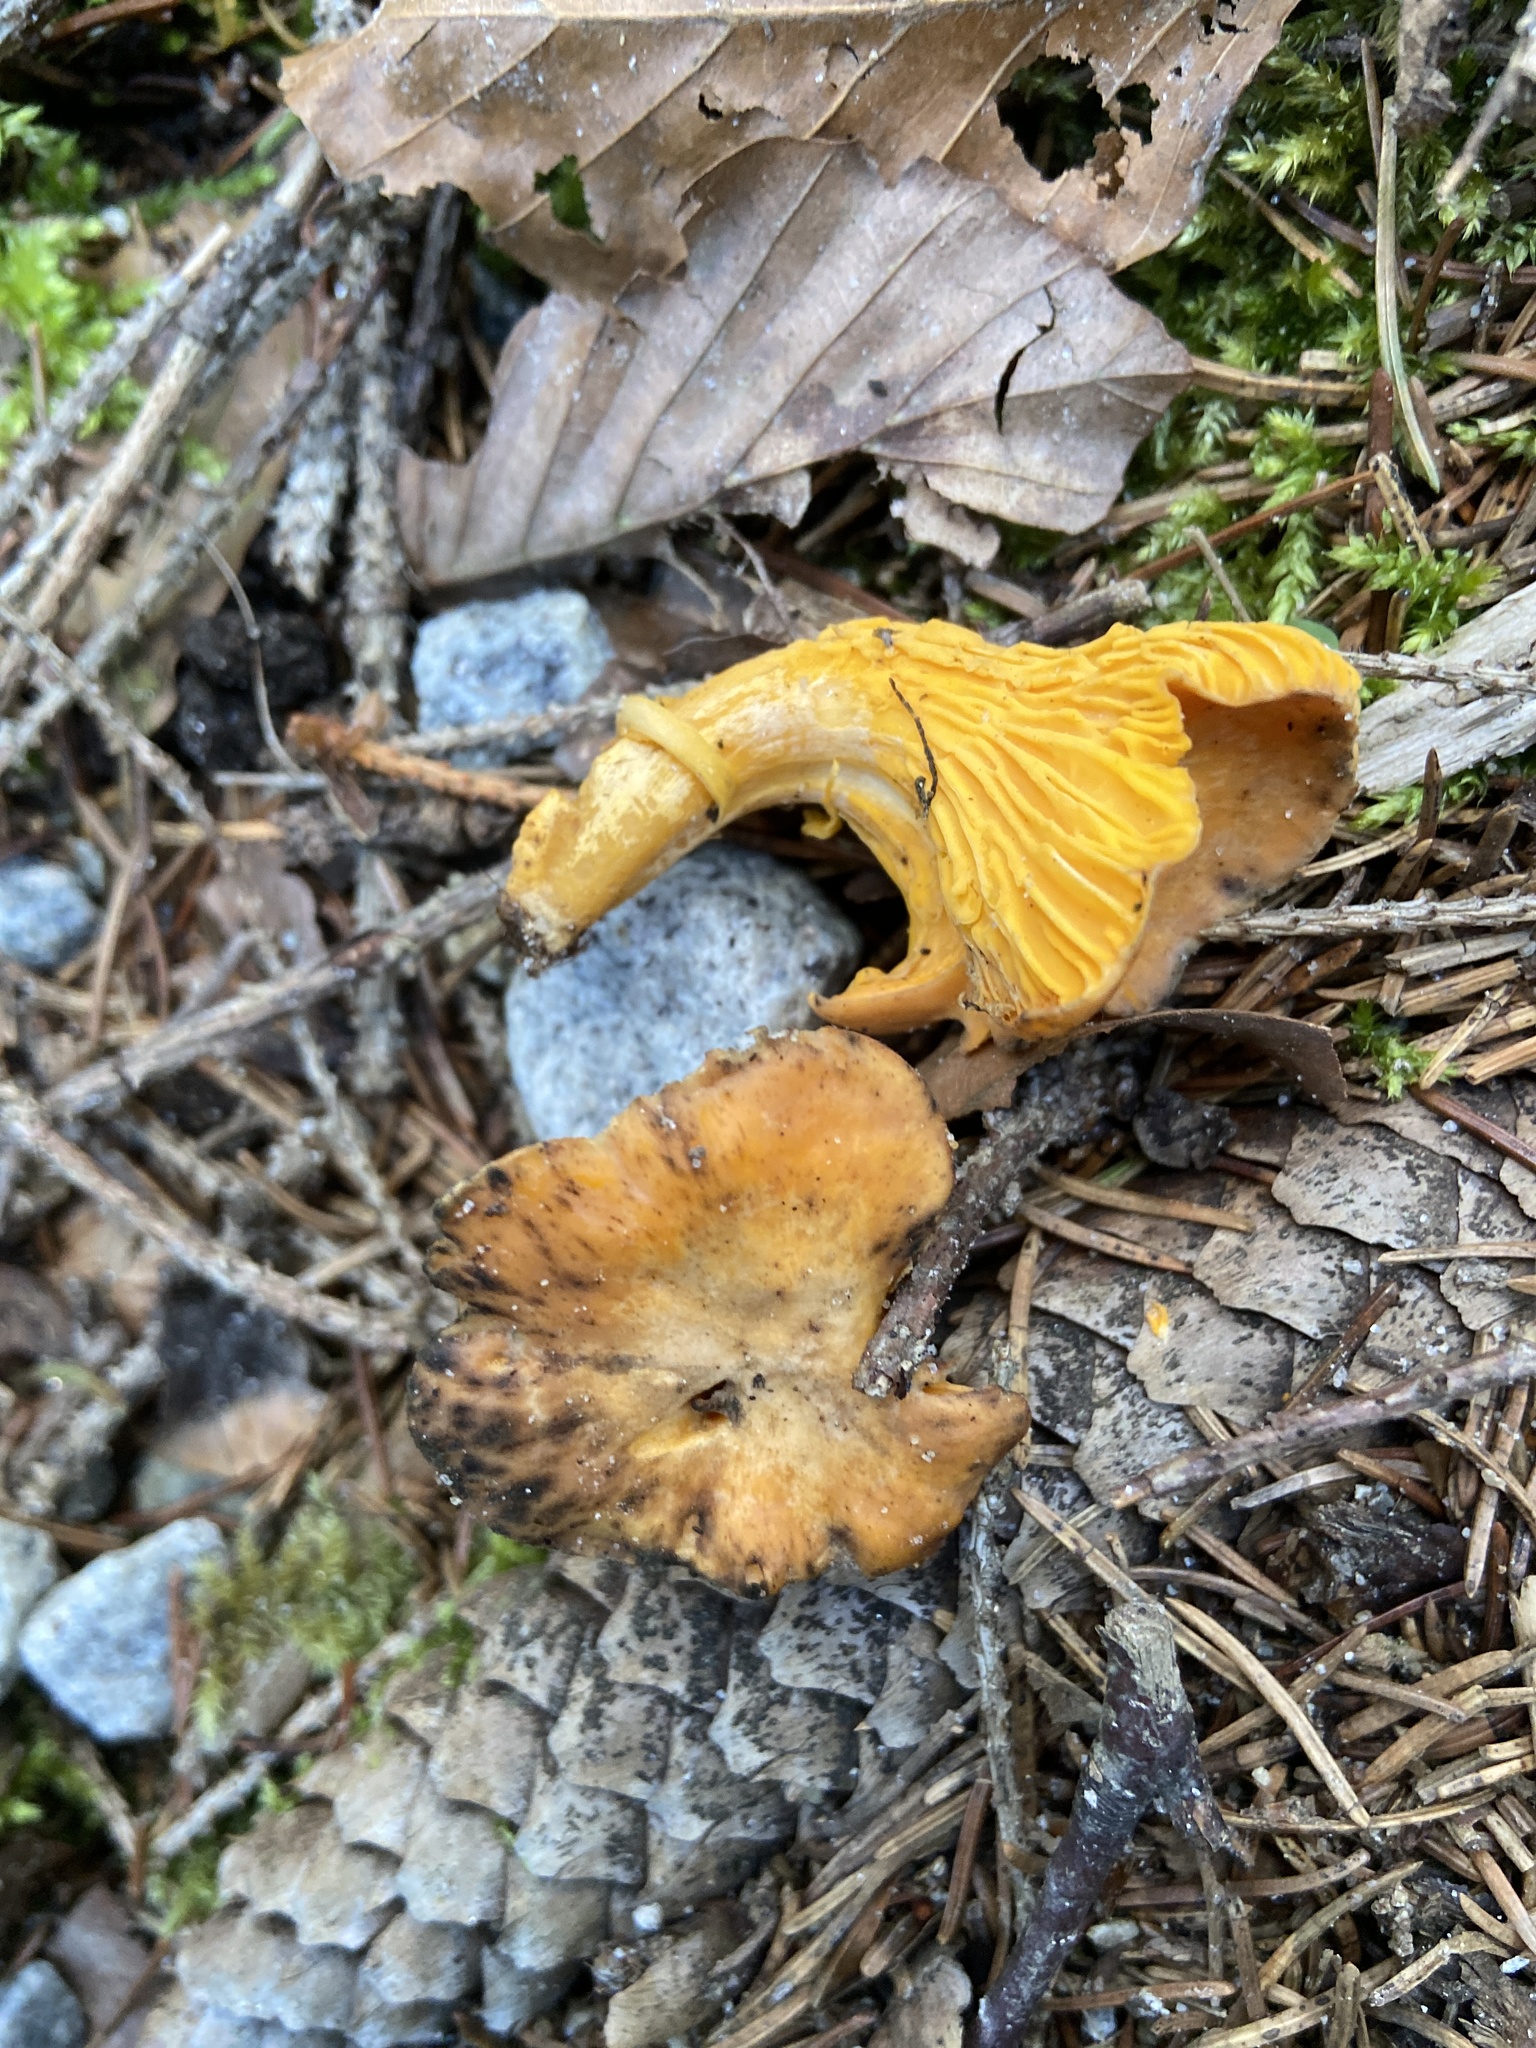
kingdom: Fungi
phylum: Basidiomycota
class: Agaricomycetes
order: Cantharellales
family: Hydnaceae
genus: Cantharellus
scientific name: Cantharellus cibarius
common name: Chanterelle
